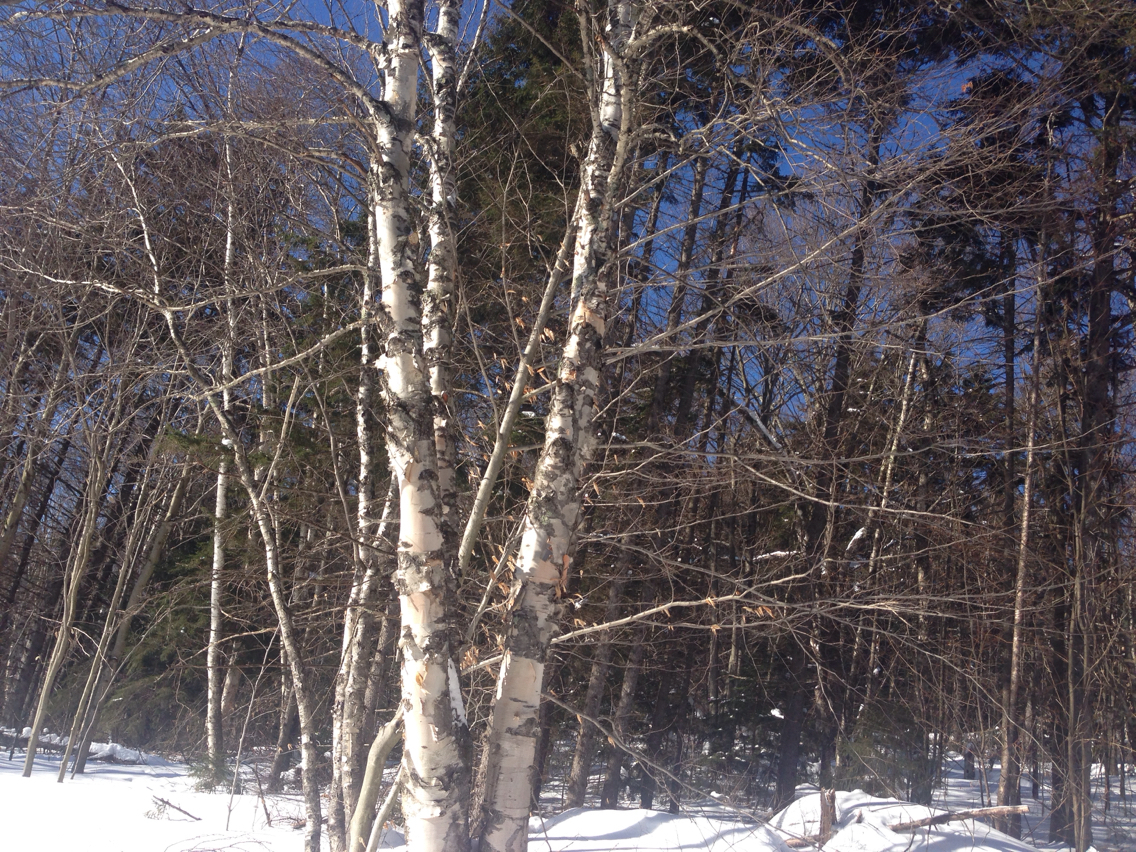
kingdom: Plantae
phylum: Tracheophyta
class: Magnoliopsida
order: Fagales
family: Betulaceae
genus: Betula
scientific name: Betula papyrifera
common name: Paper birch
